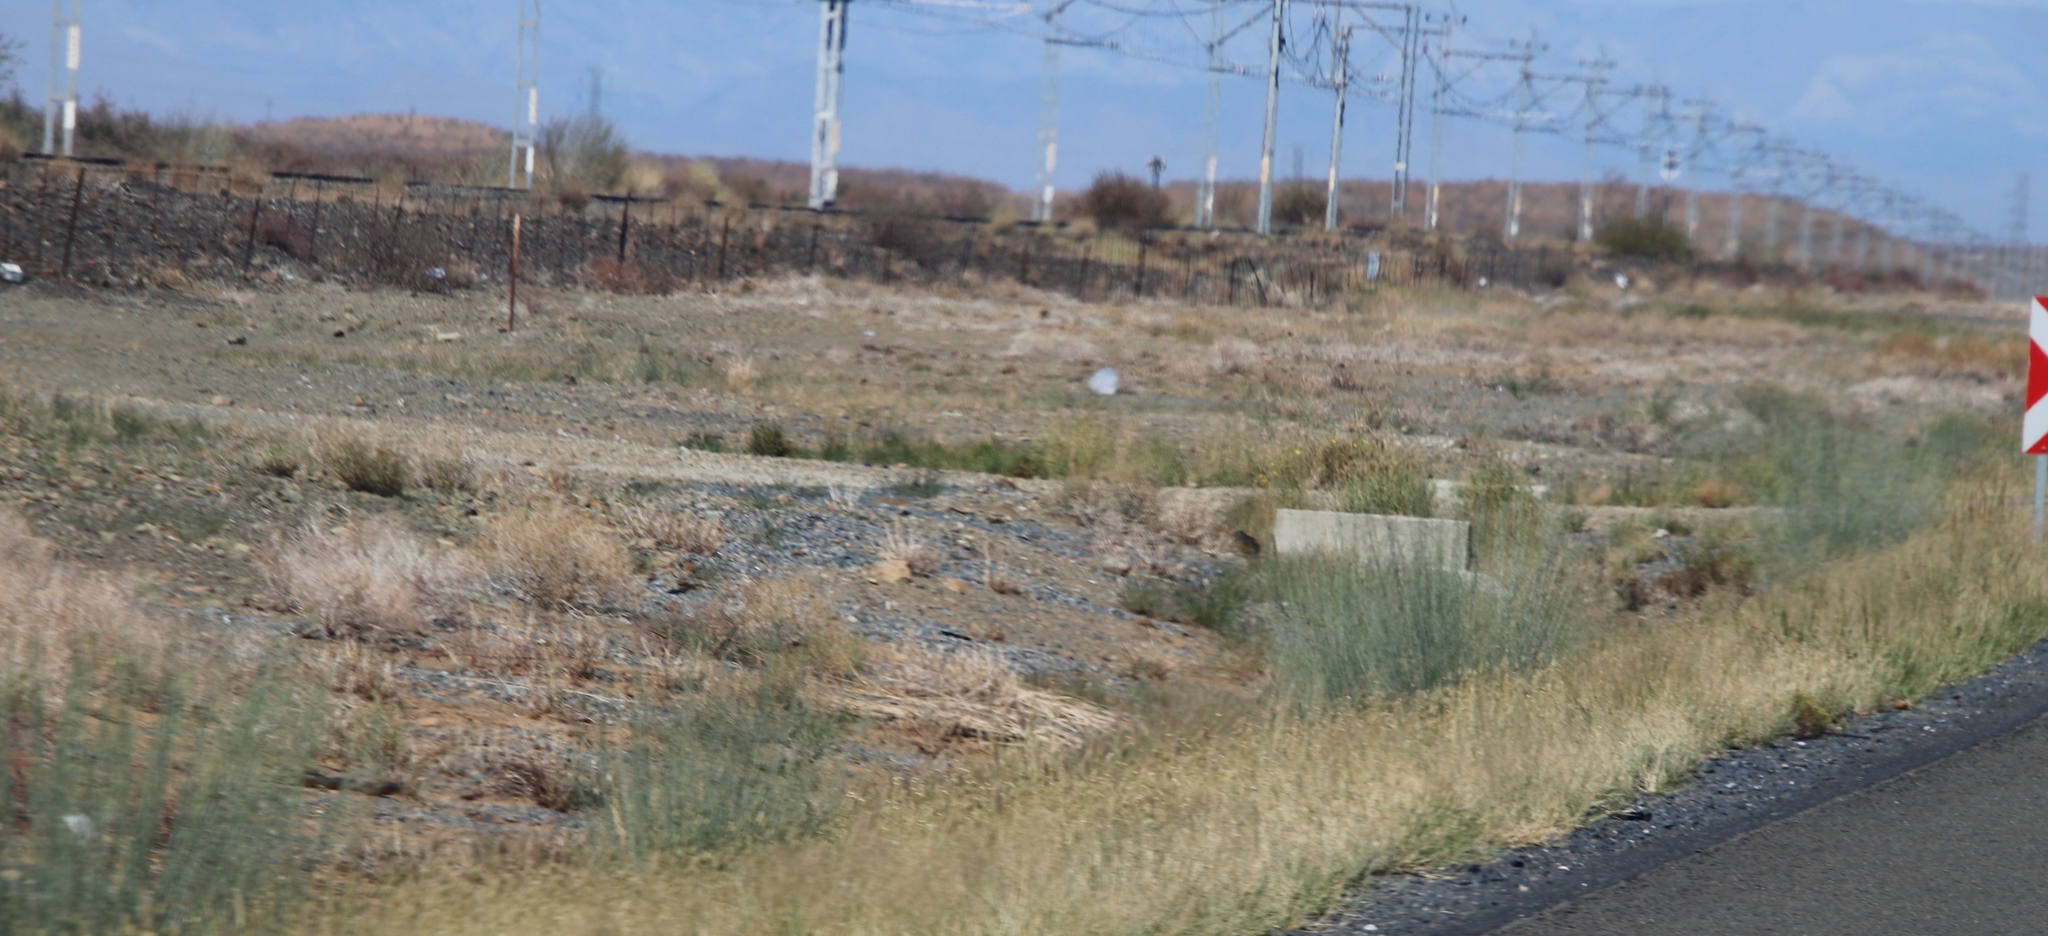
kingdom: Plantae
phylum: Tracheophyta
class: Magnoliopsida
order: Gentianales
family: Apocynaceae
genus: Gomphocarpus
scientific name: Gomphocarpus filiformis
